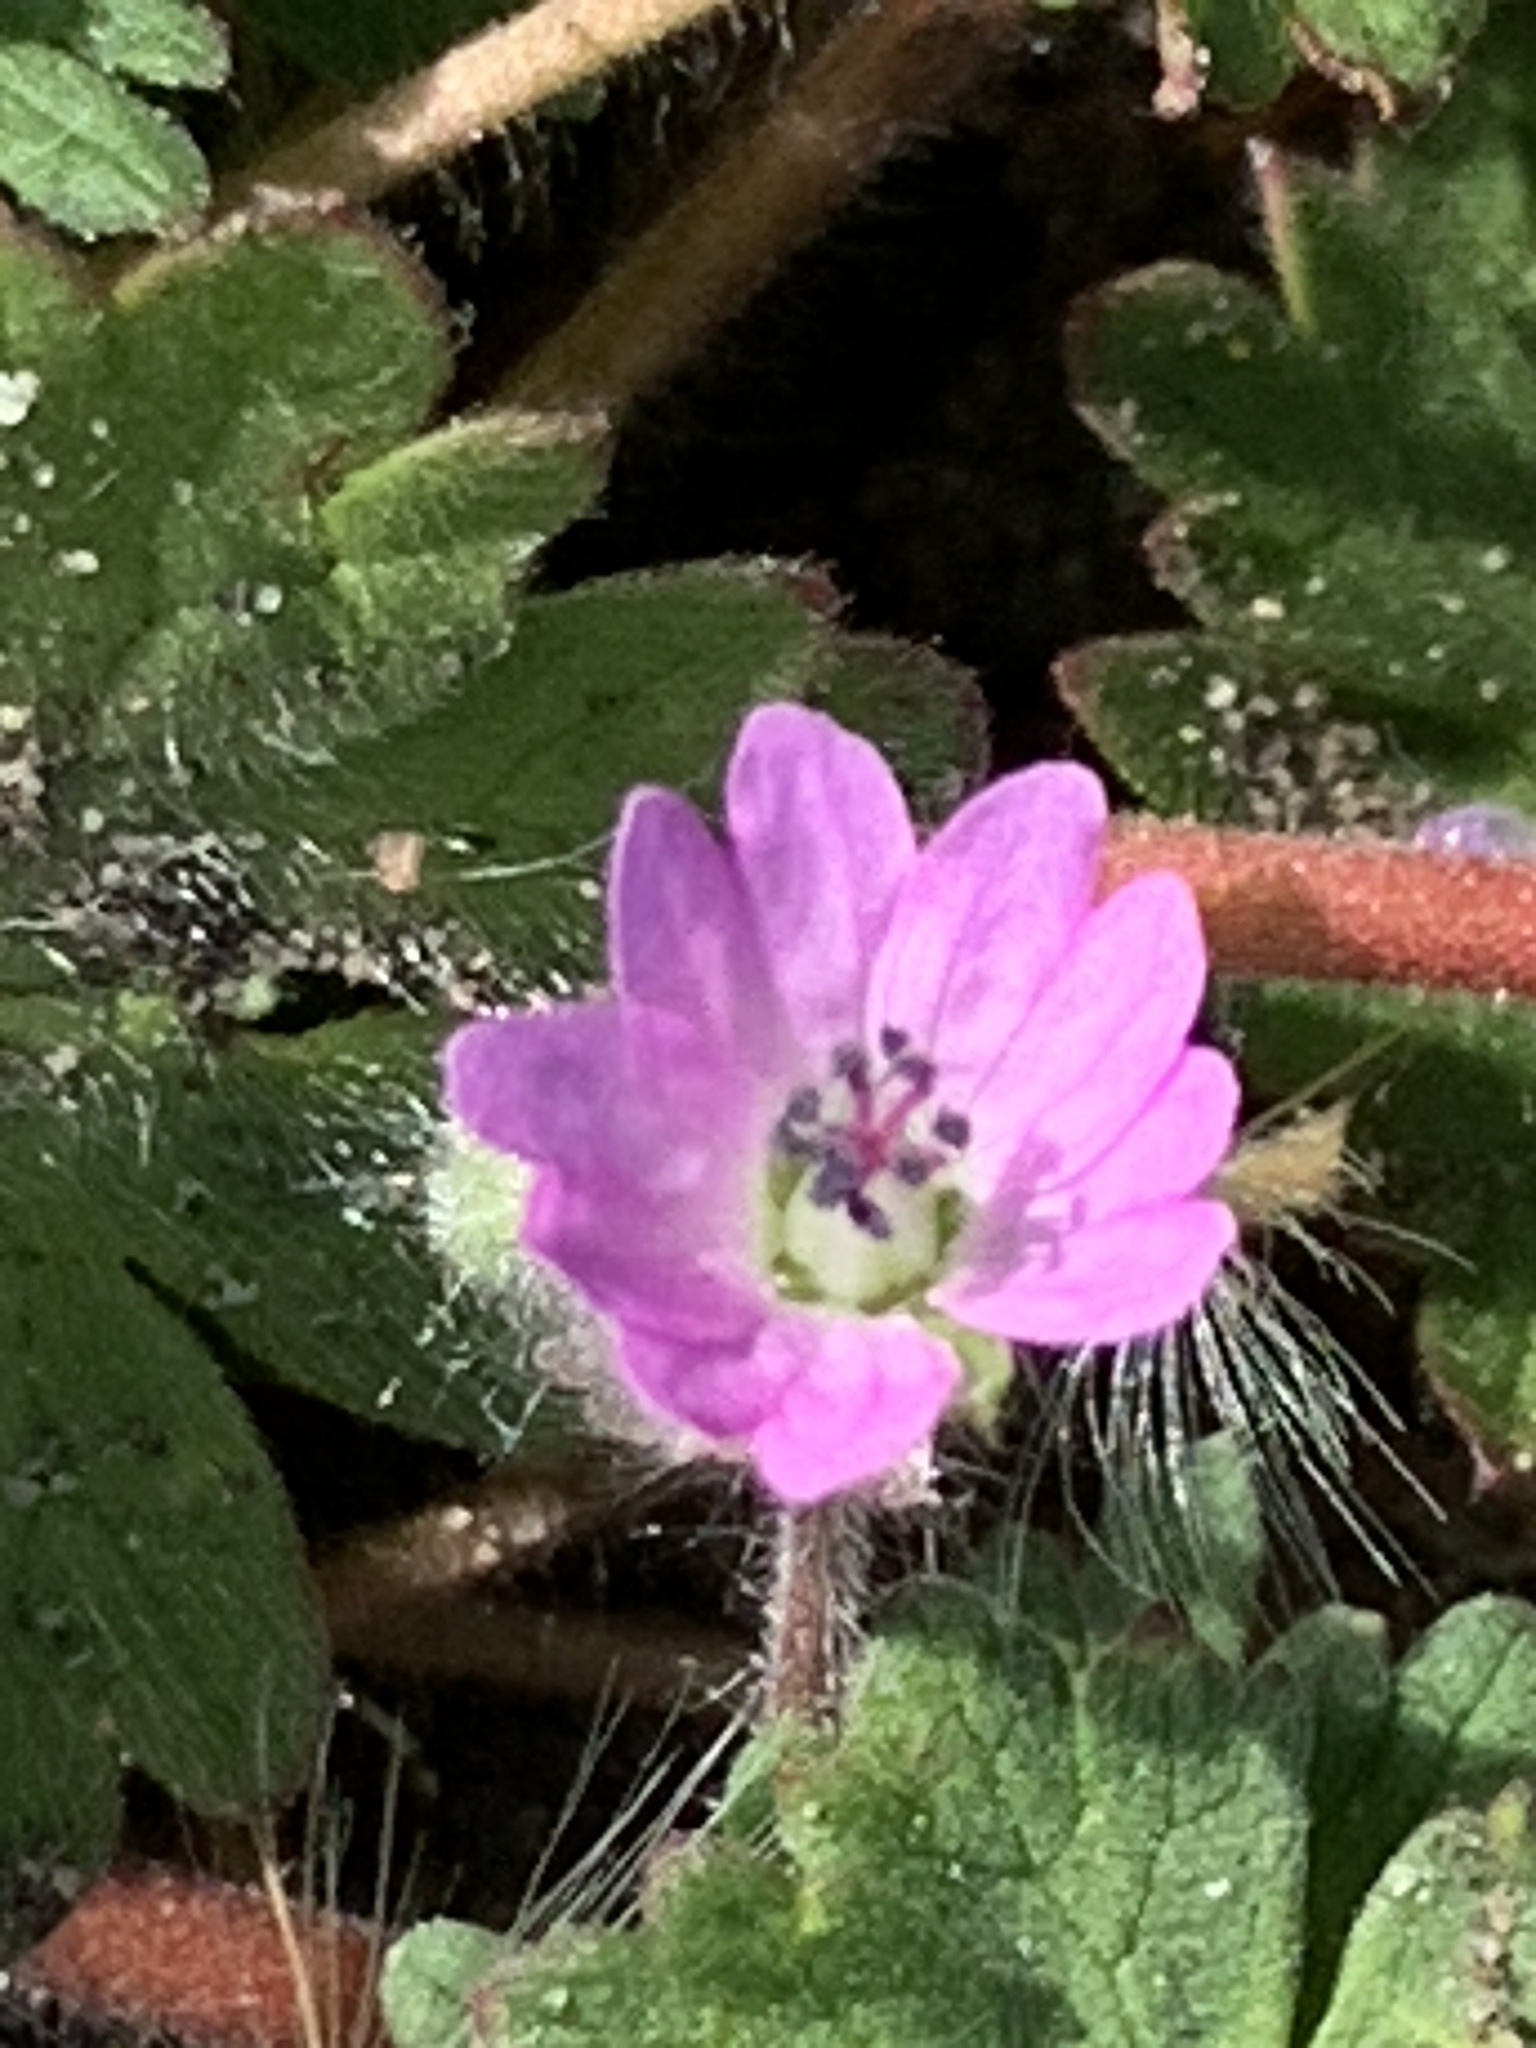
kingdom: Plantae
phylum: Tracheophyta
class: Magnoliopsida
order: Geraniales
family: Geraniaceae
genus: Geranium
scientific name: Geranium molle
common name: Dove's-foot crane's-bill
